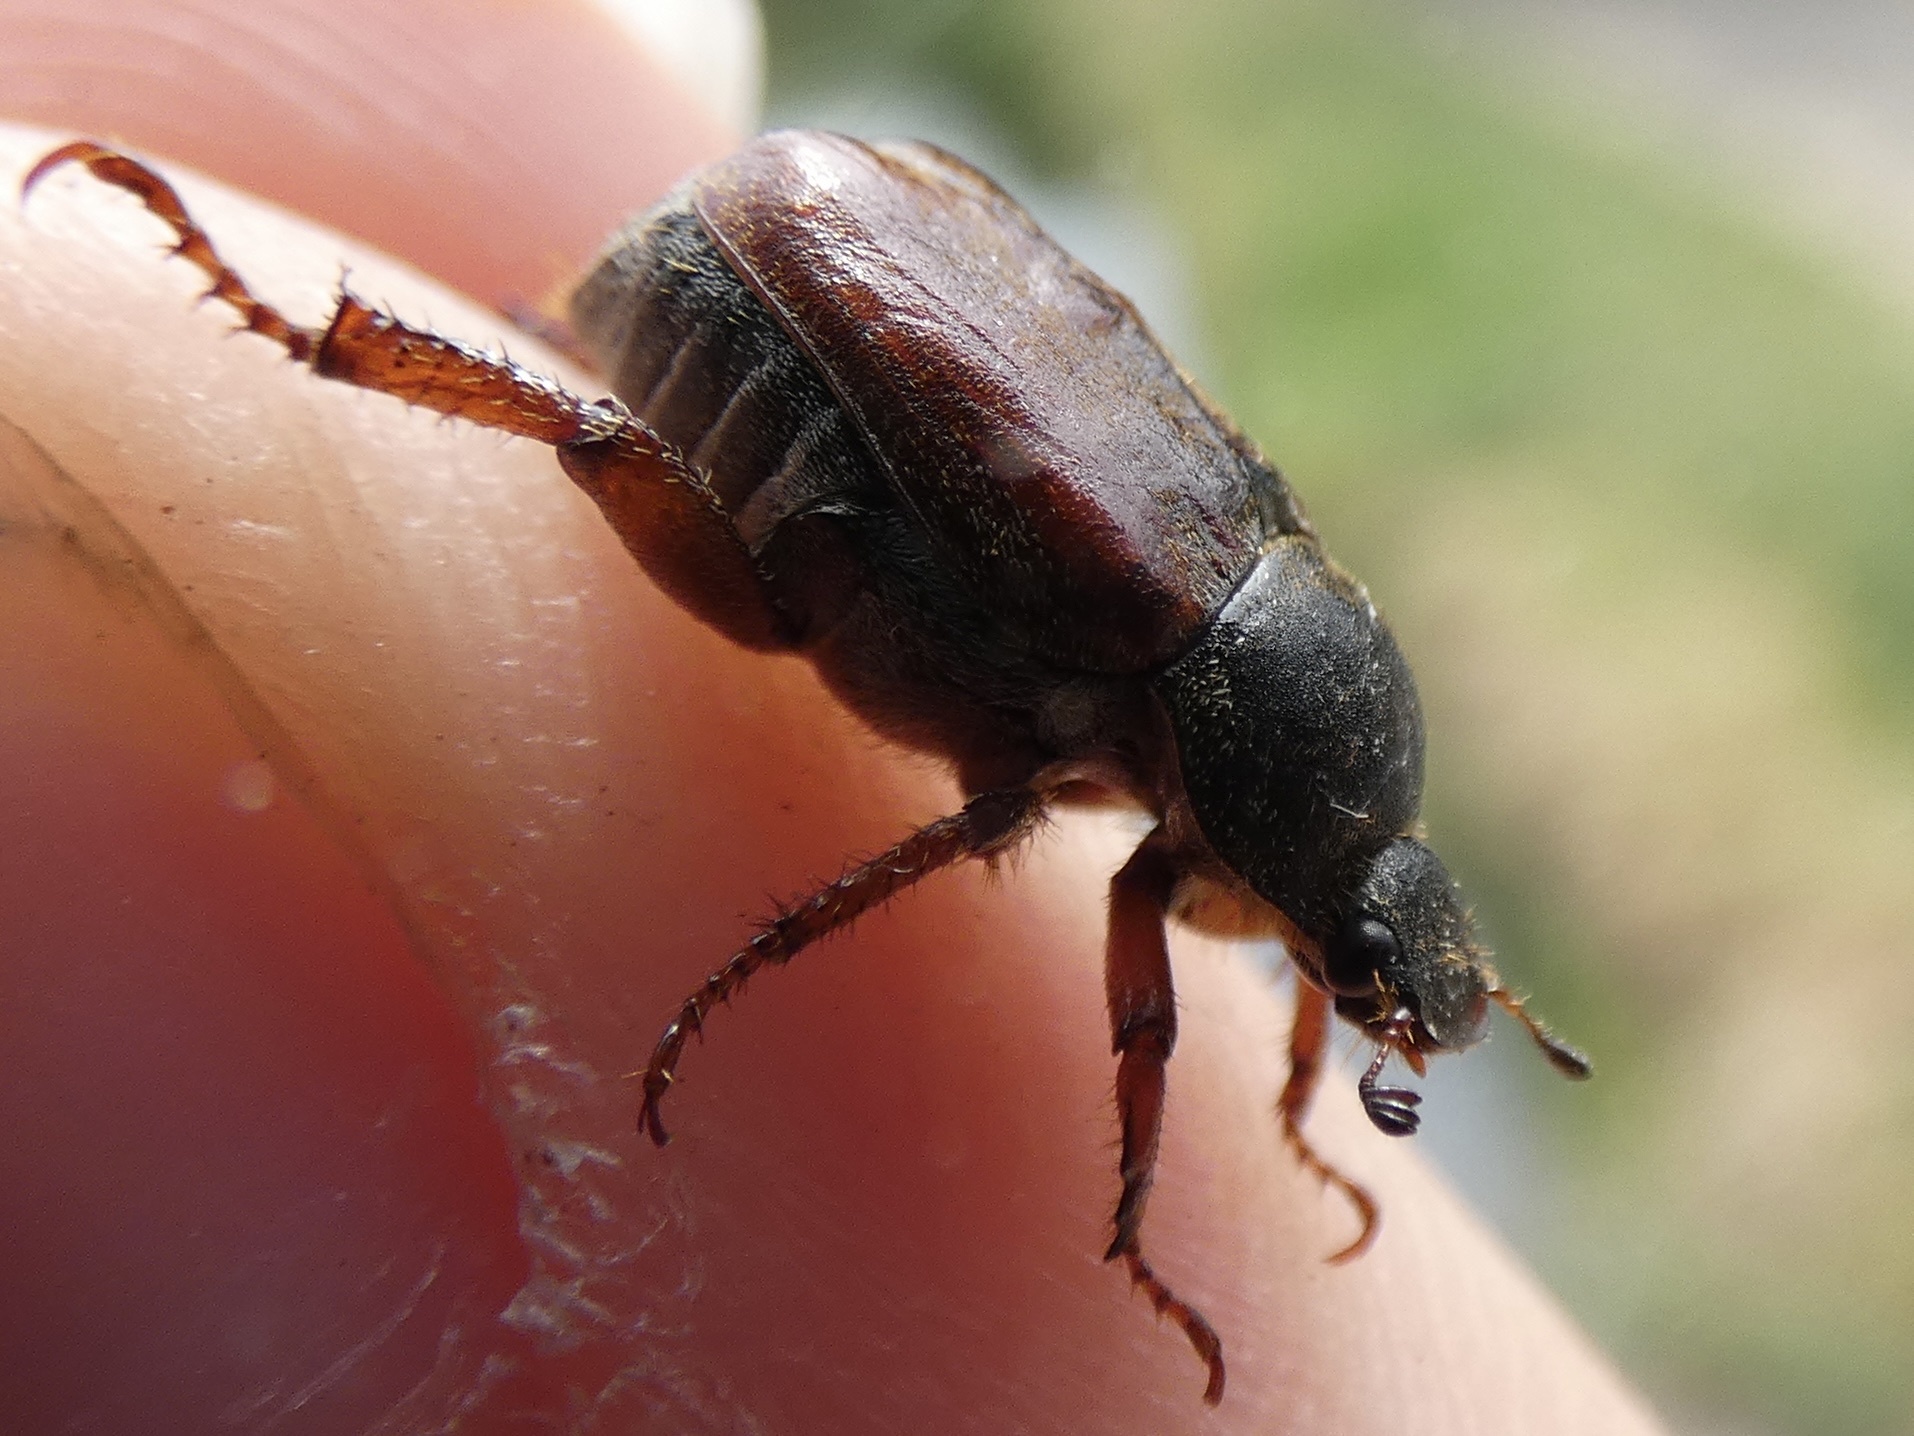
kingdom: Animalia
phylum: Arthropoda
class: Insecta
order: Coleoptera
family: Scarabaeidae
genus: Hoplia
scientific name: Hoplia philanthus
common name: Welsh chafer
